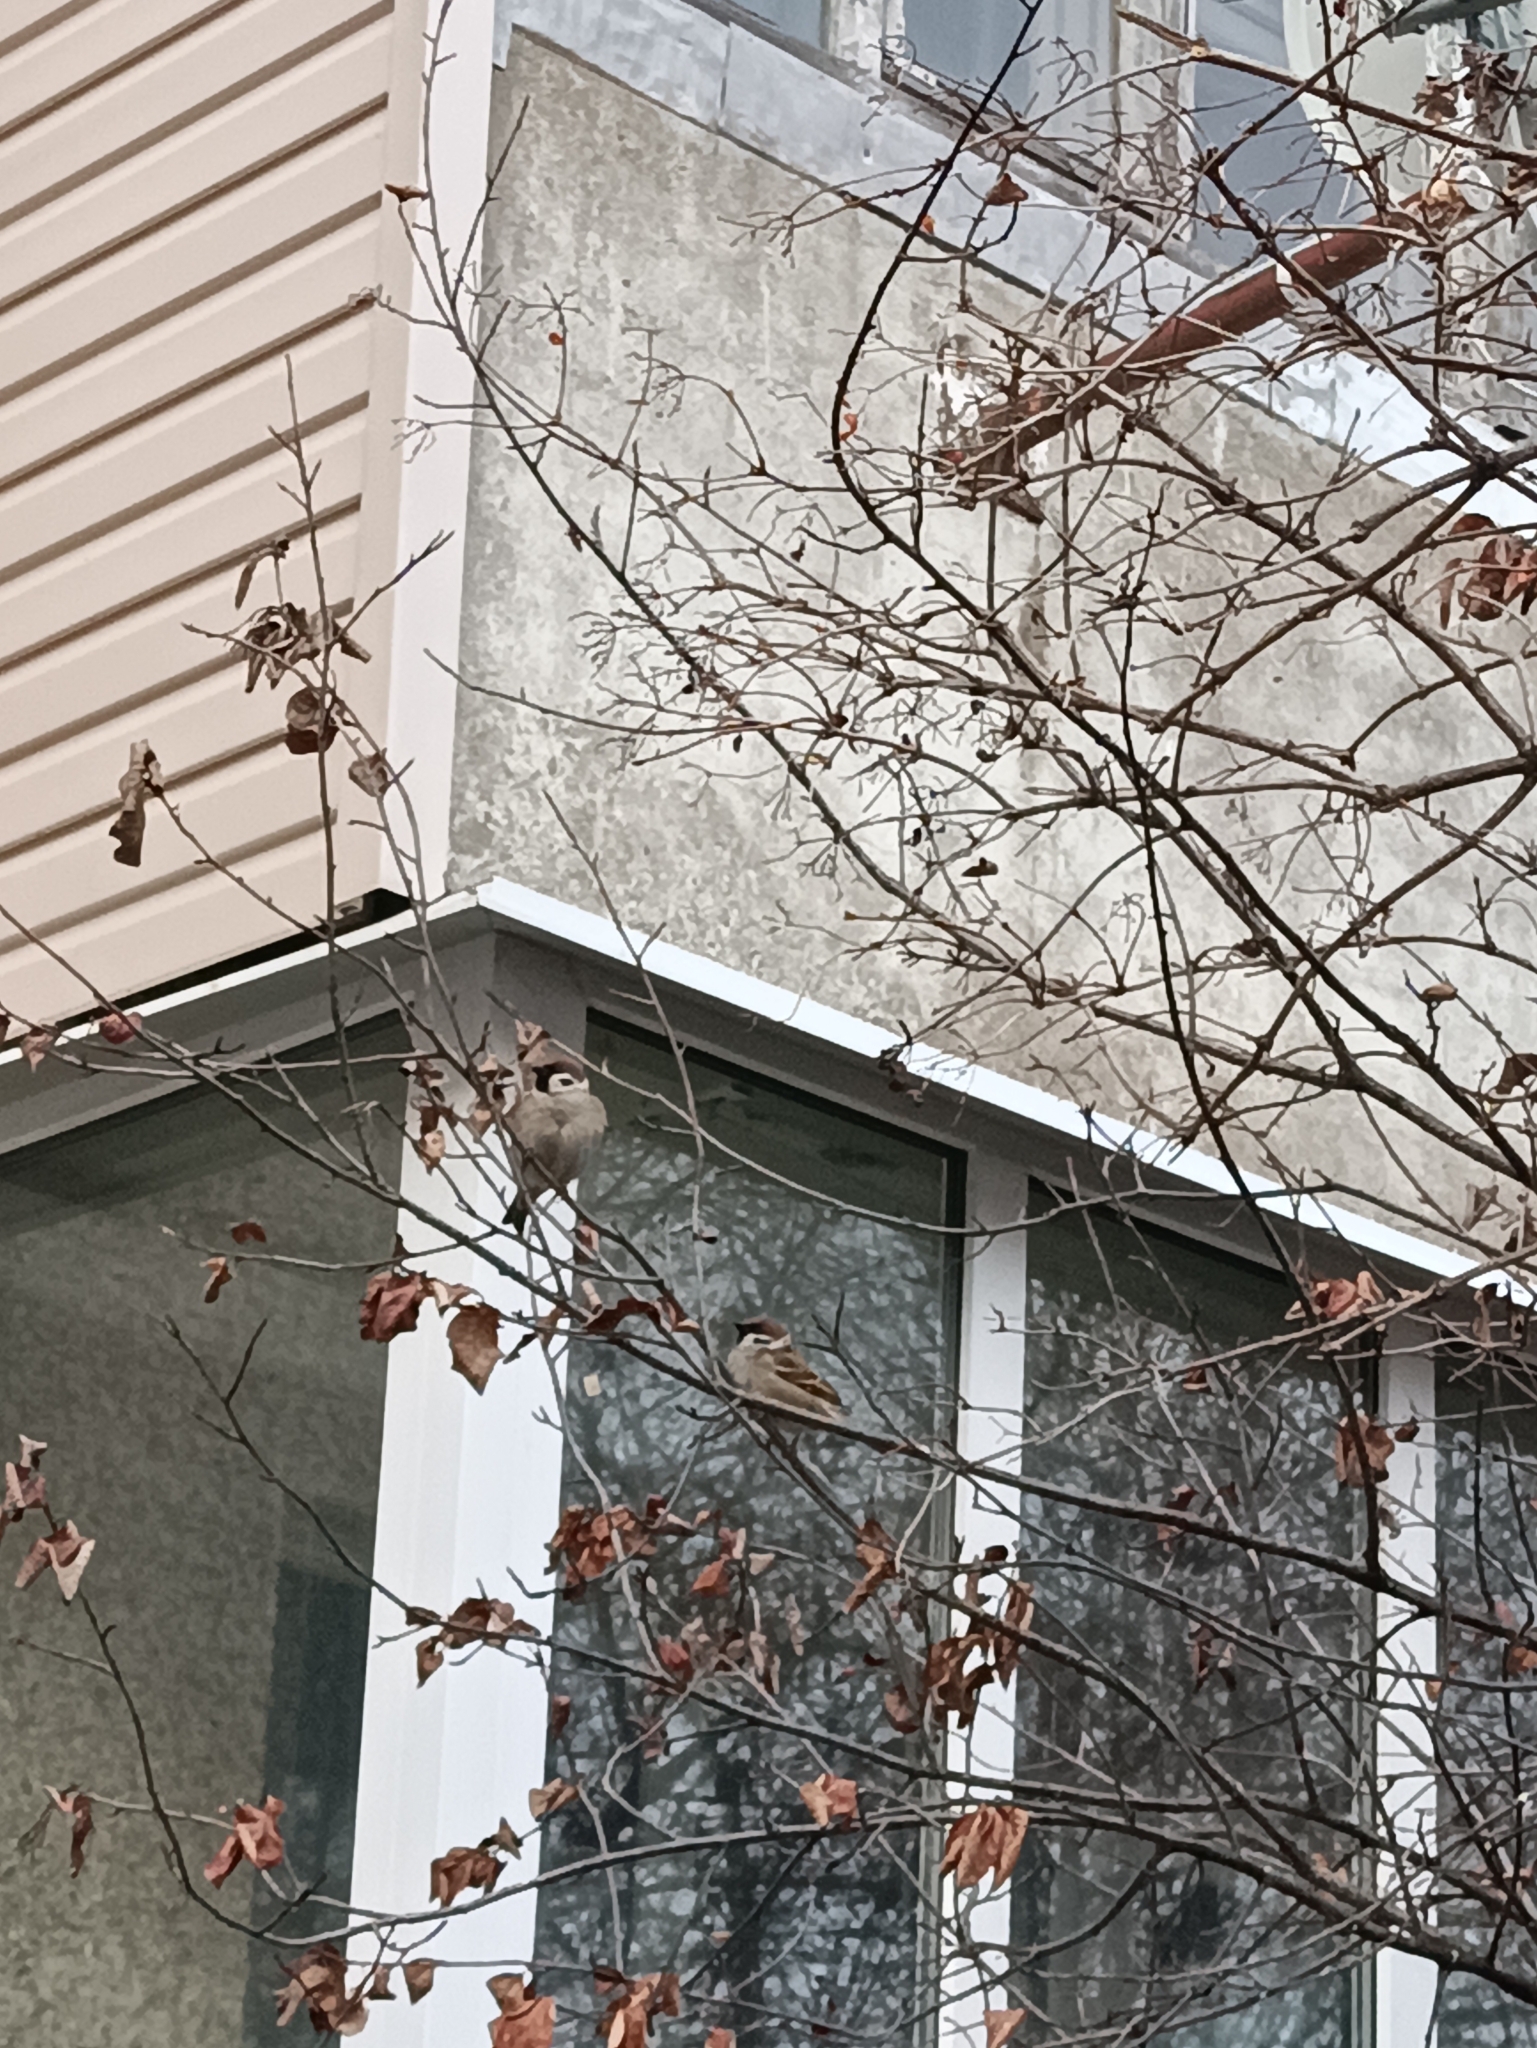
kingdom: Animalia
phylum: Chordata
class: Aves
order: Passeriformes
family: Passeridae
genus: Passer
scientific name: Passer montanus
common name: Eurasian tree sparrow
